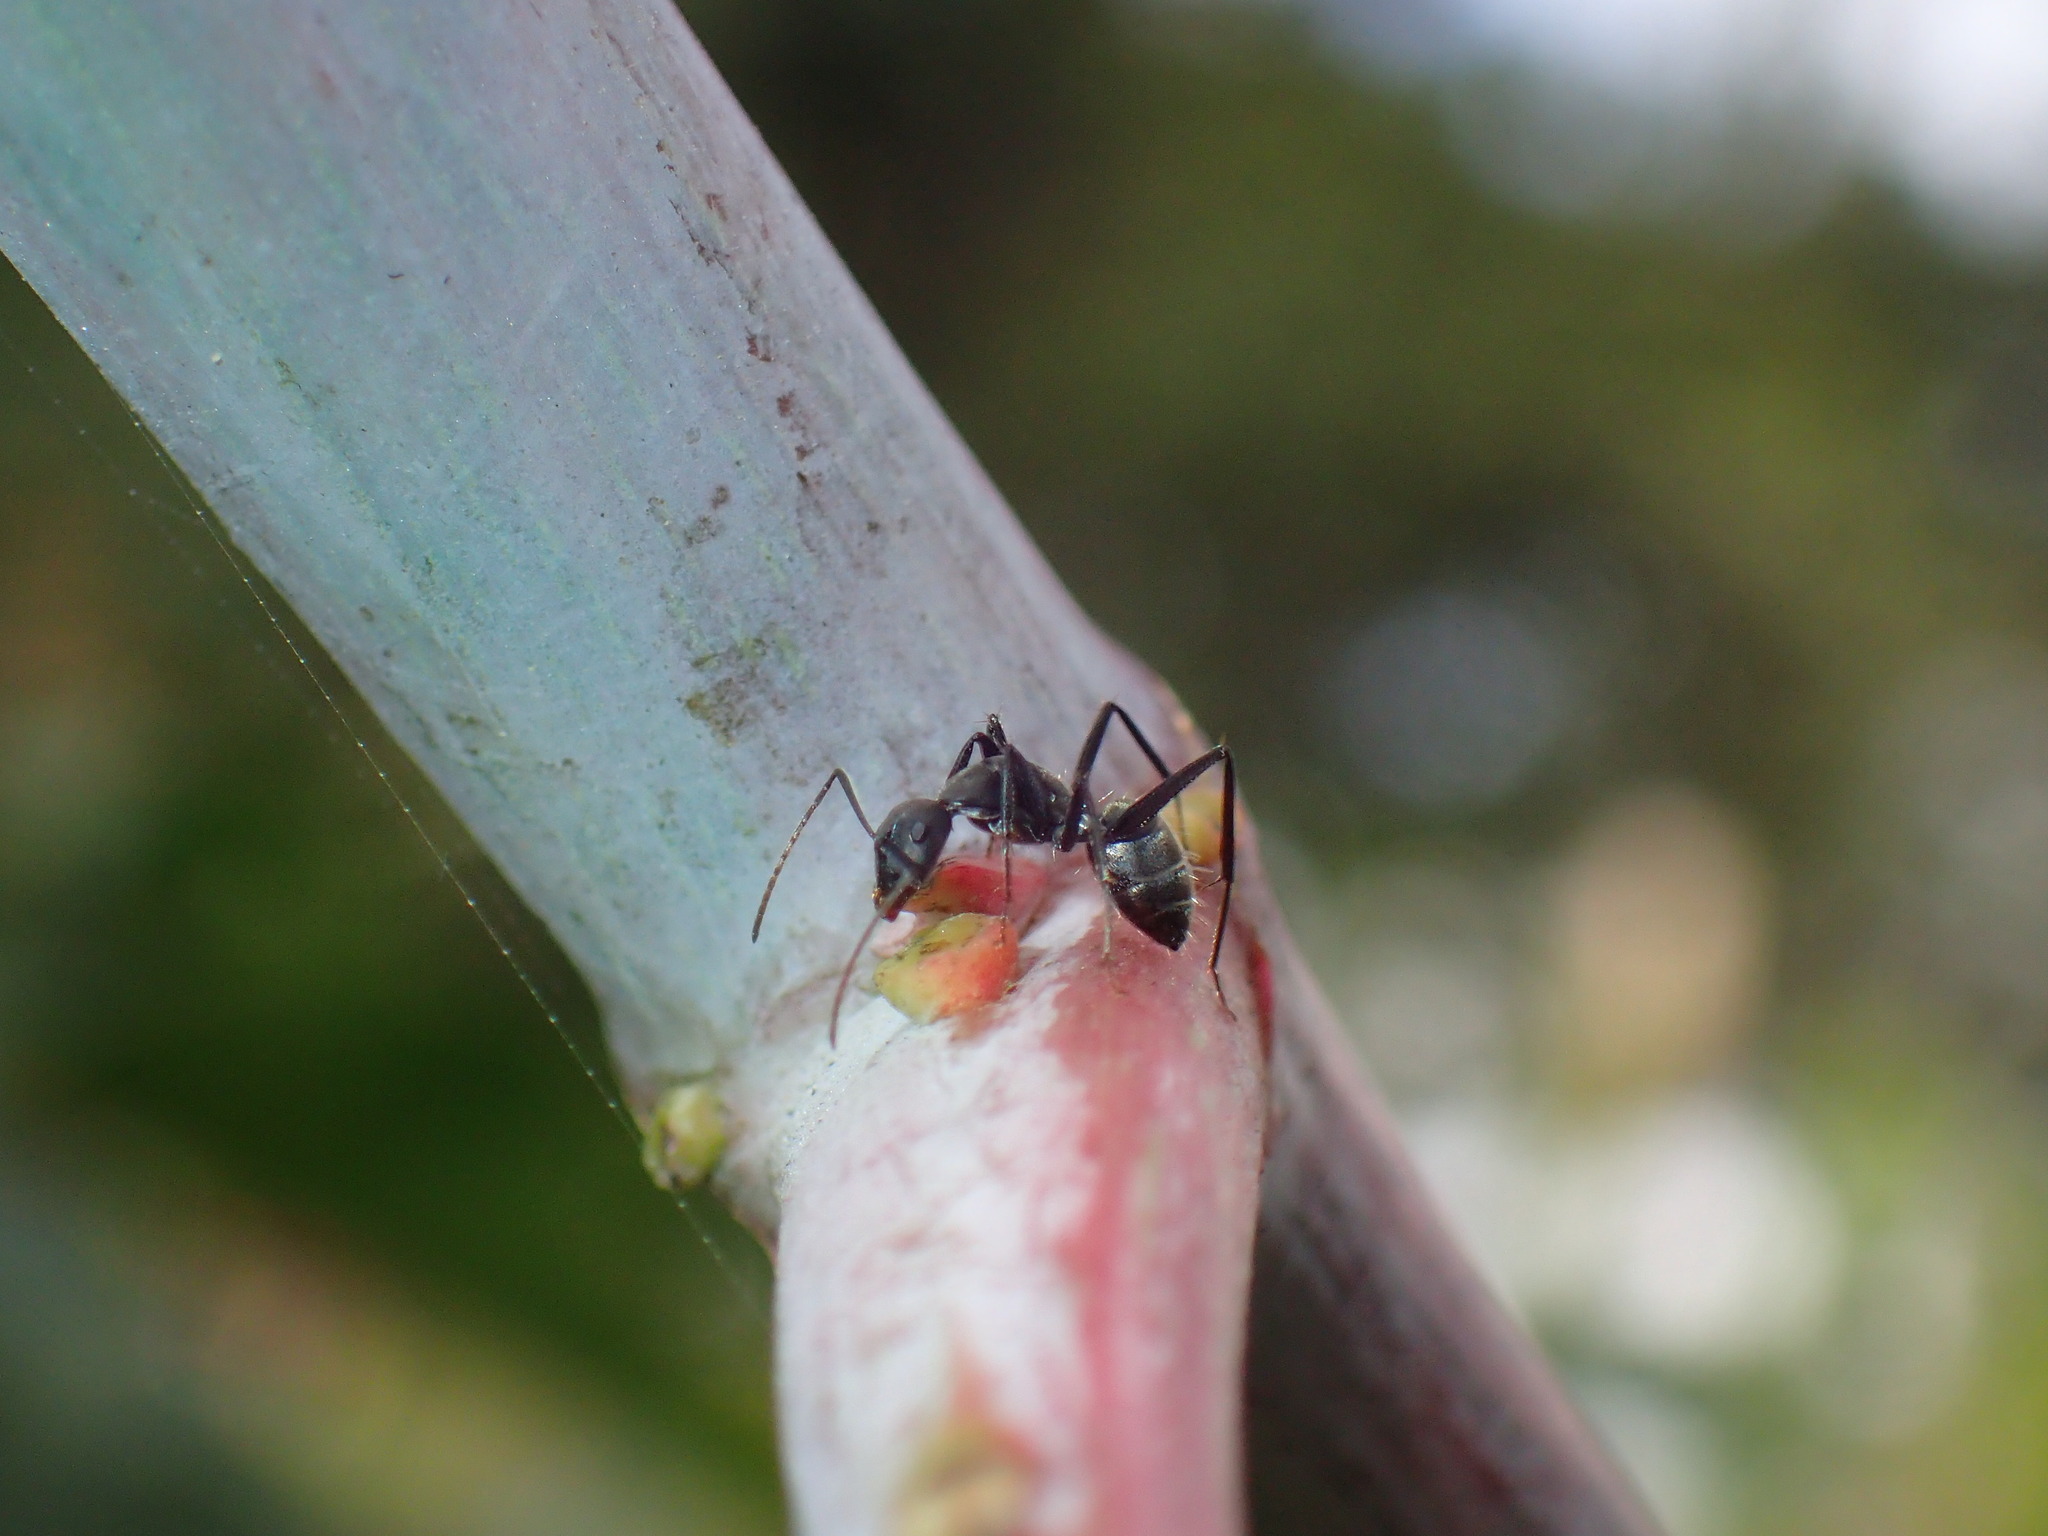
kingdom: Animalia
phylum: Arthropoda
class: Insecta
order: Hymenoptera
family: Formicidae
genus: Camponotus
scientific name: Camponotus cinctellus
